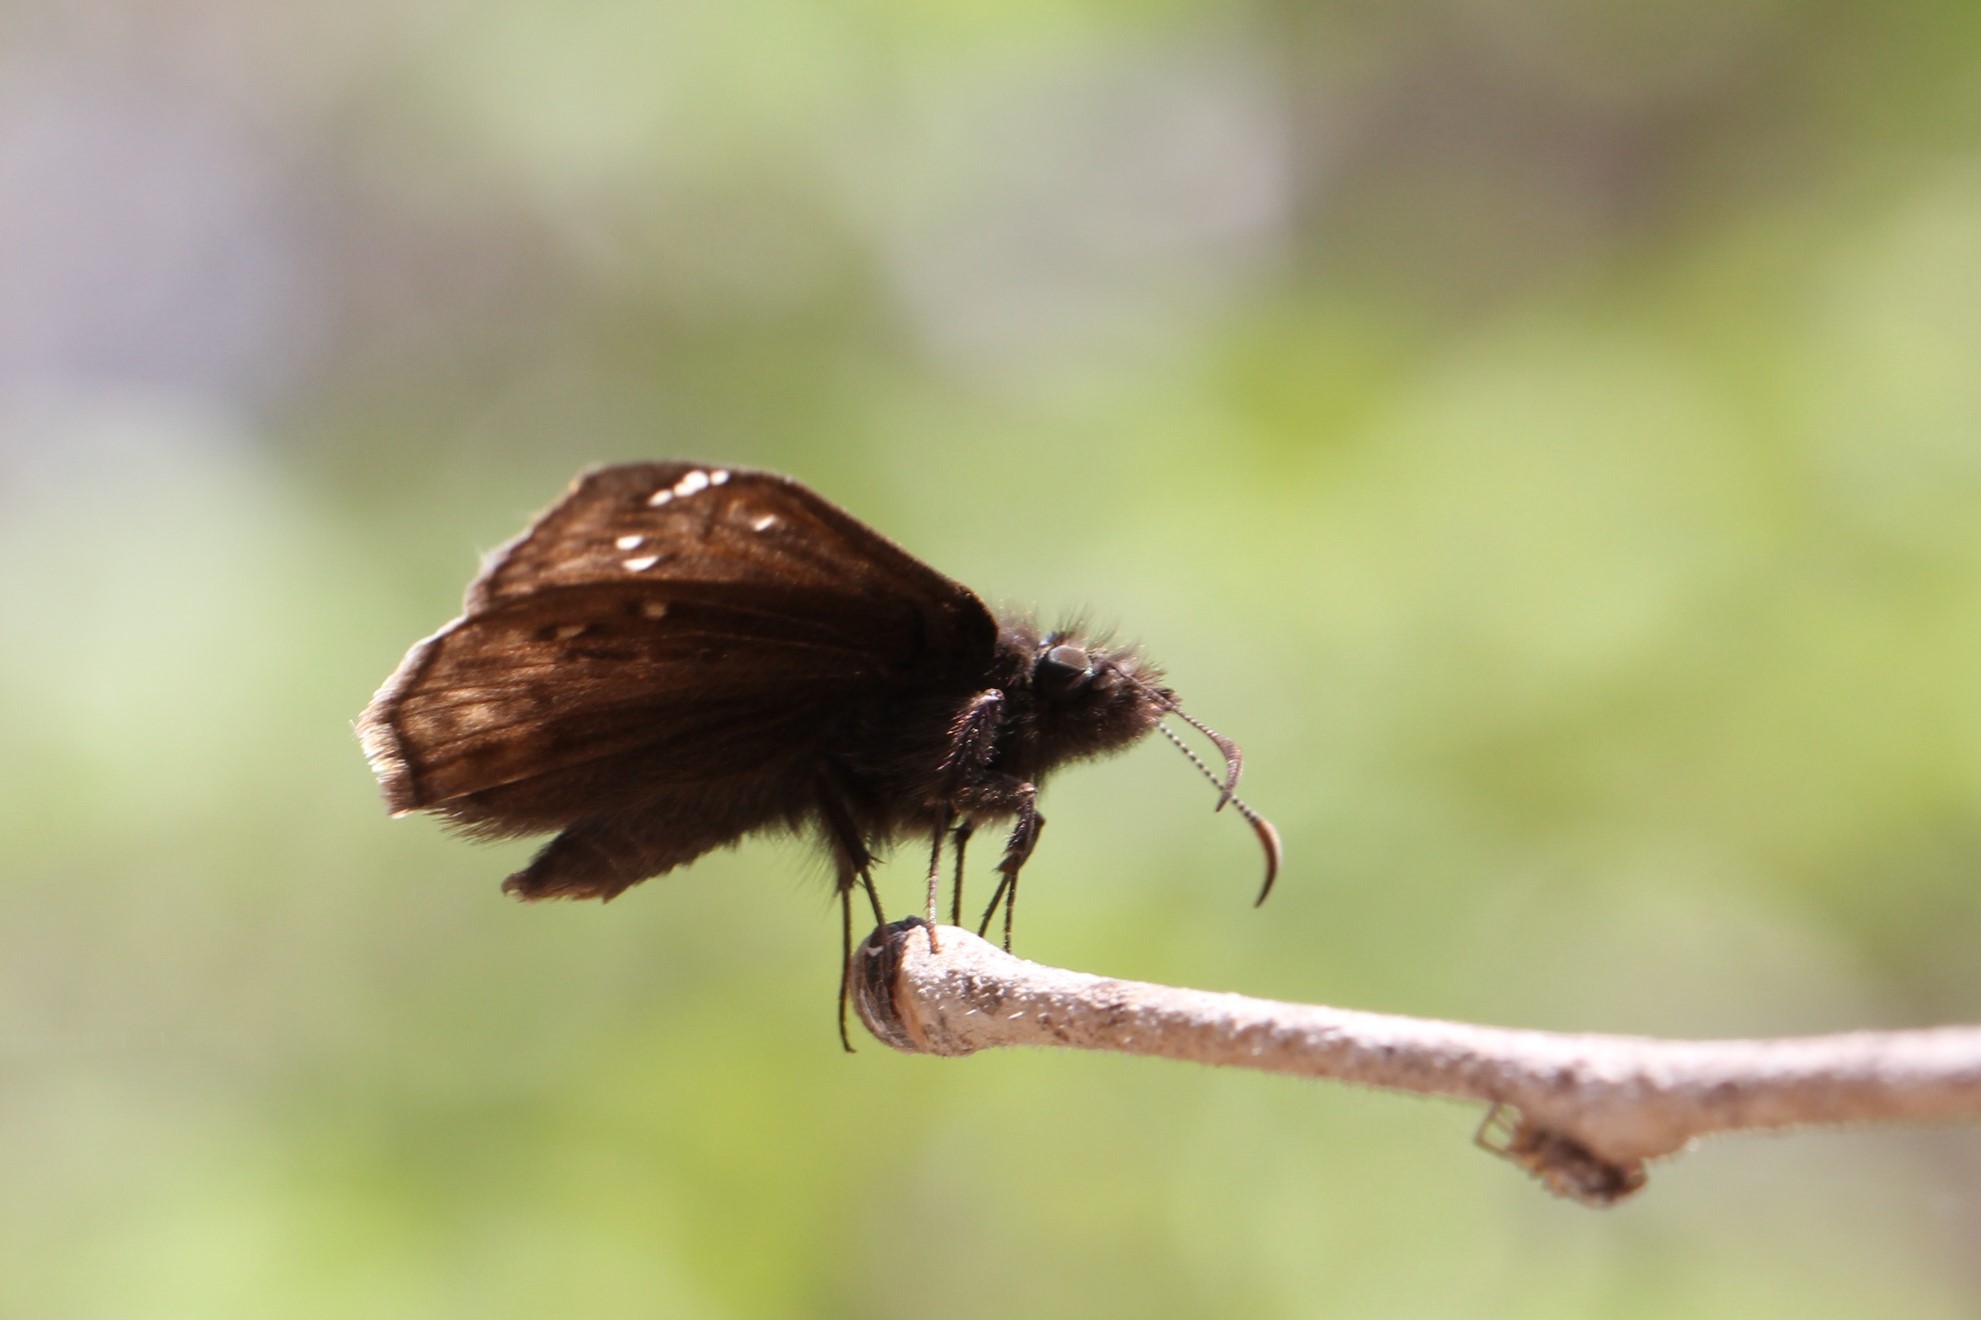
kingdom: Animalia
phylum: Arthropoda
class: Insecta
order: Lepidoptera
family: Hesperiidae
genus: Erynnis
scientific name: Erynnis juvenalis
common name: Juvenal's duskywing
